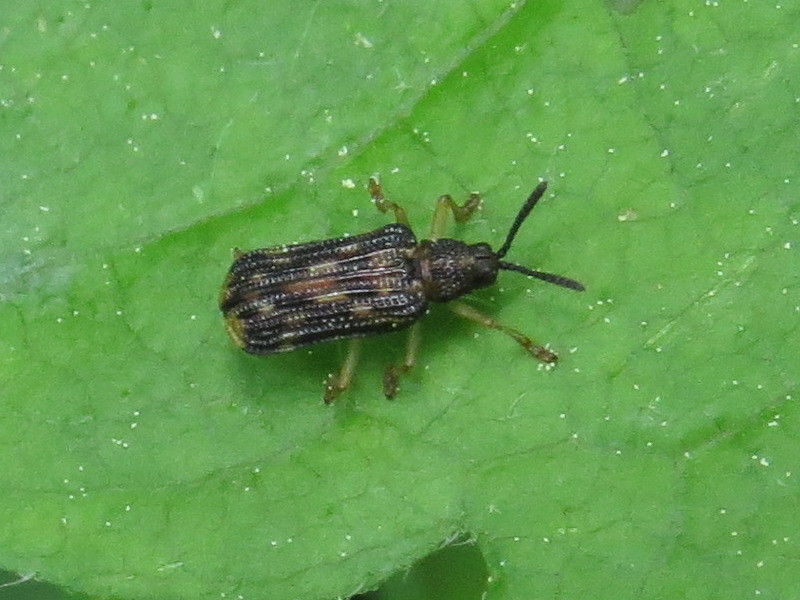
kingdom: Animalia
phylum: Arthropoda
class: Insecta
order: Coleoptera
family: Chrysomelidae
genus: Sumitrosis
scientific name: Sumitrosis inaequalis
